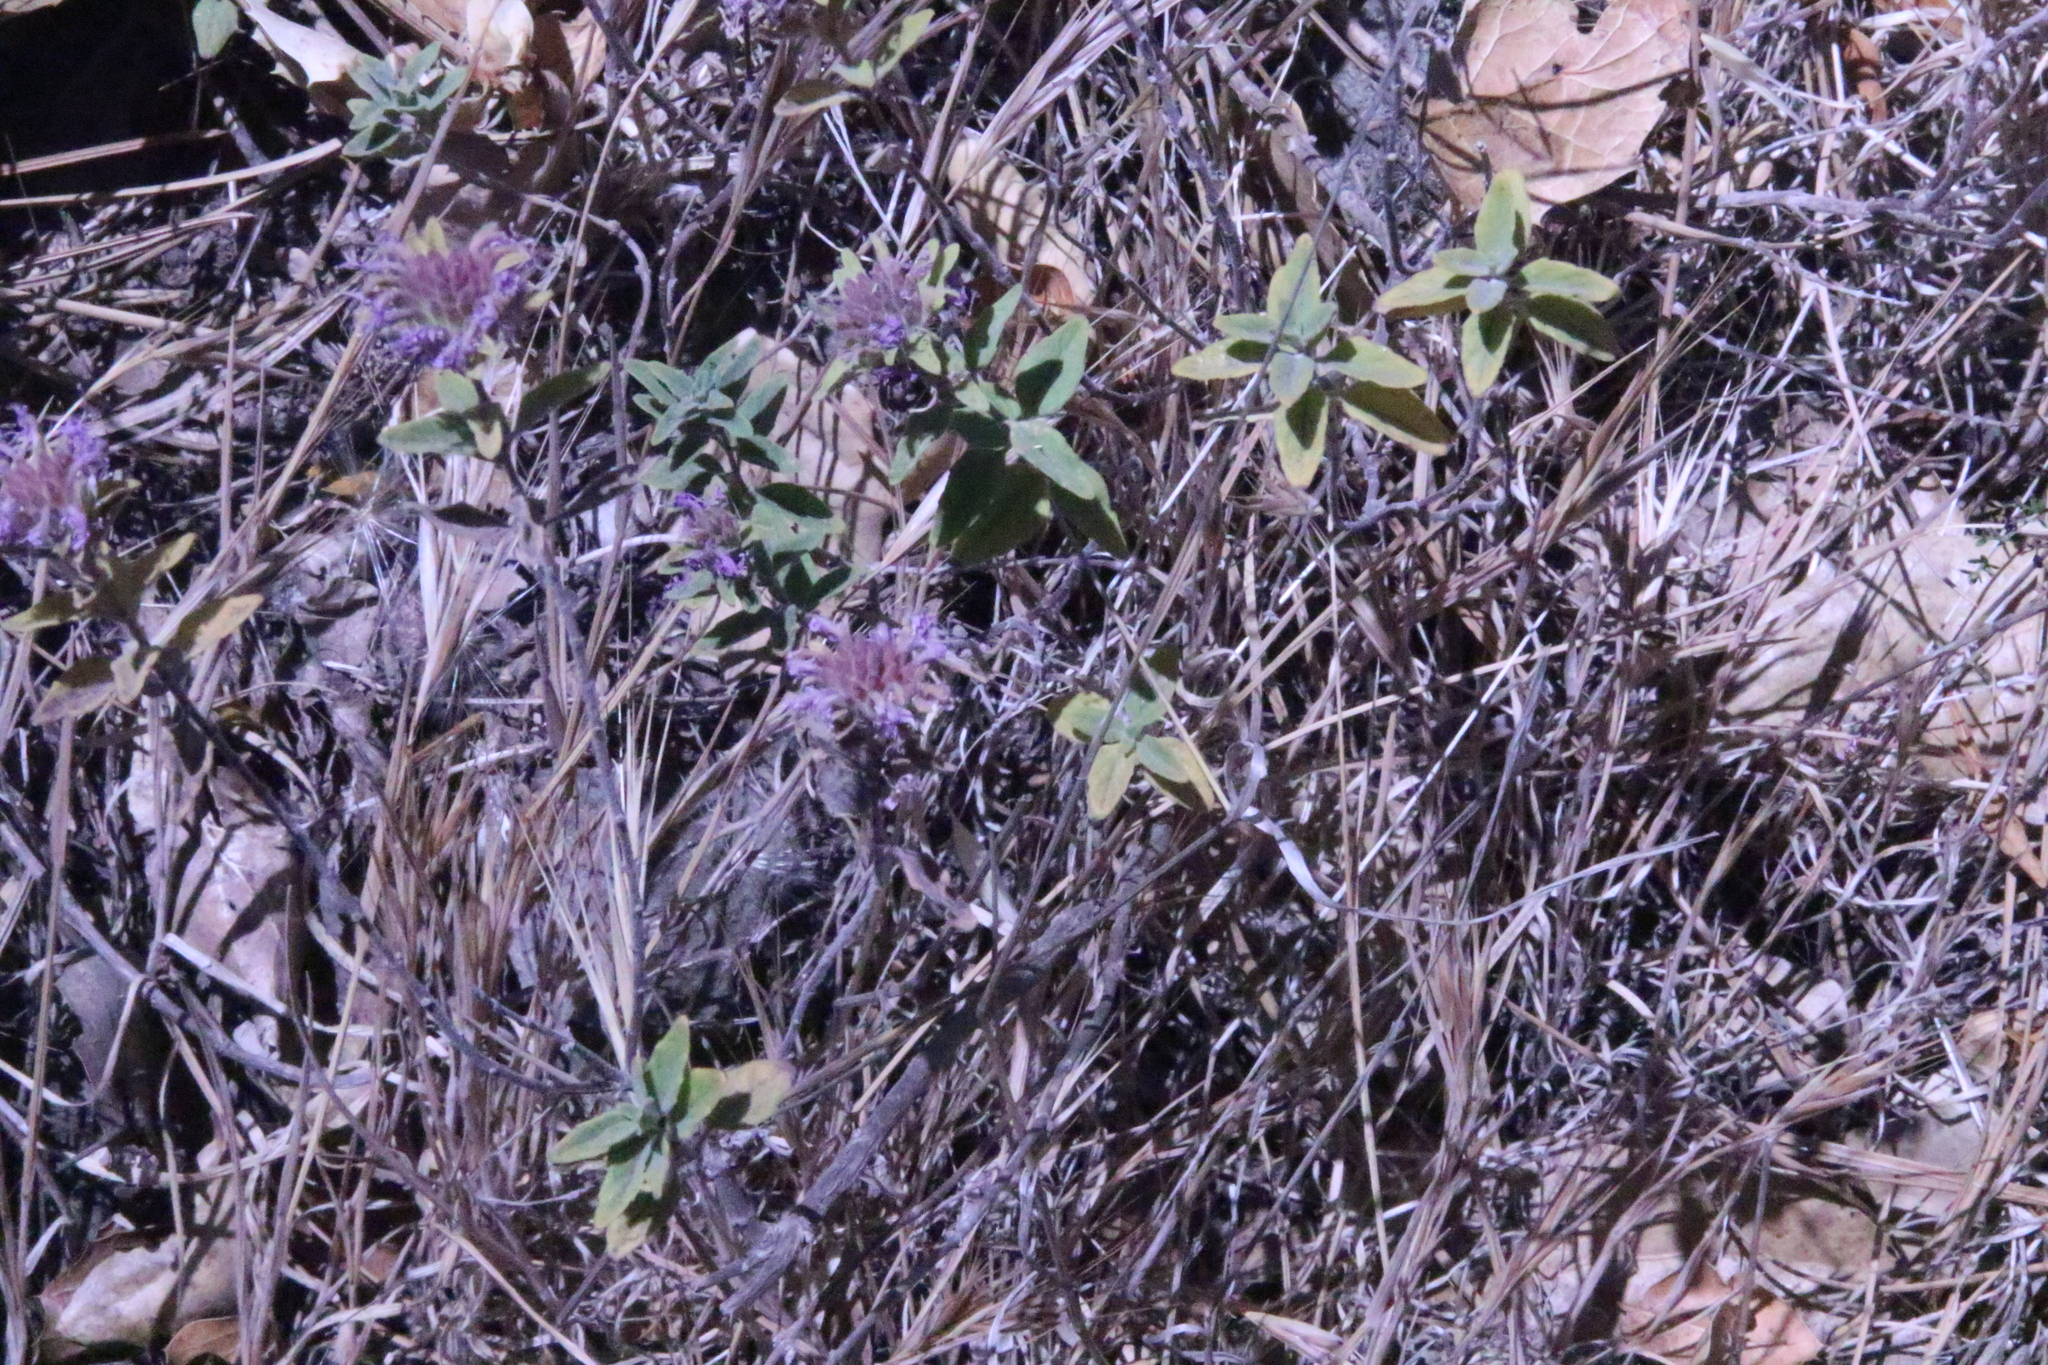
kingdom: Plantae
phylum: Tracheophyta
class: Magnoliopsida
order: Lamiales
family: Lamiaceae
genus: Monardella
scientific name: Monardella odoratissima
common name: Pacific monardella
